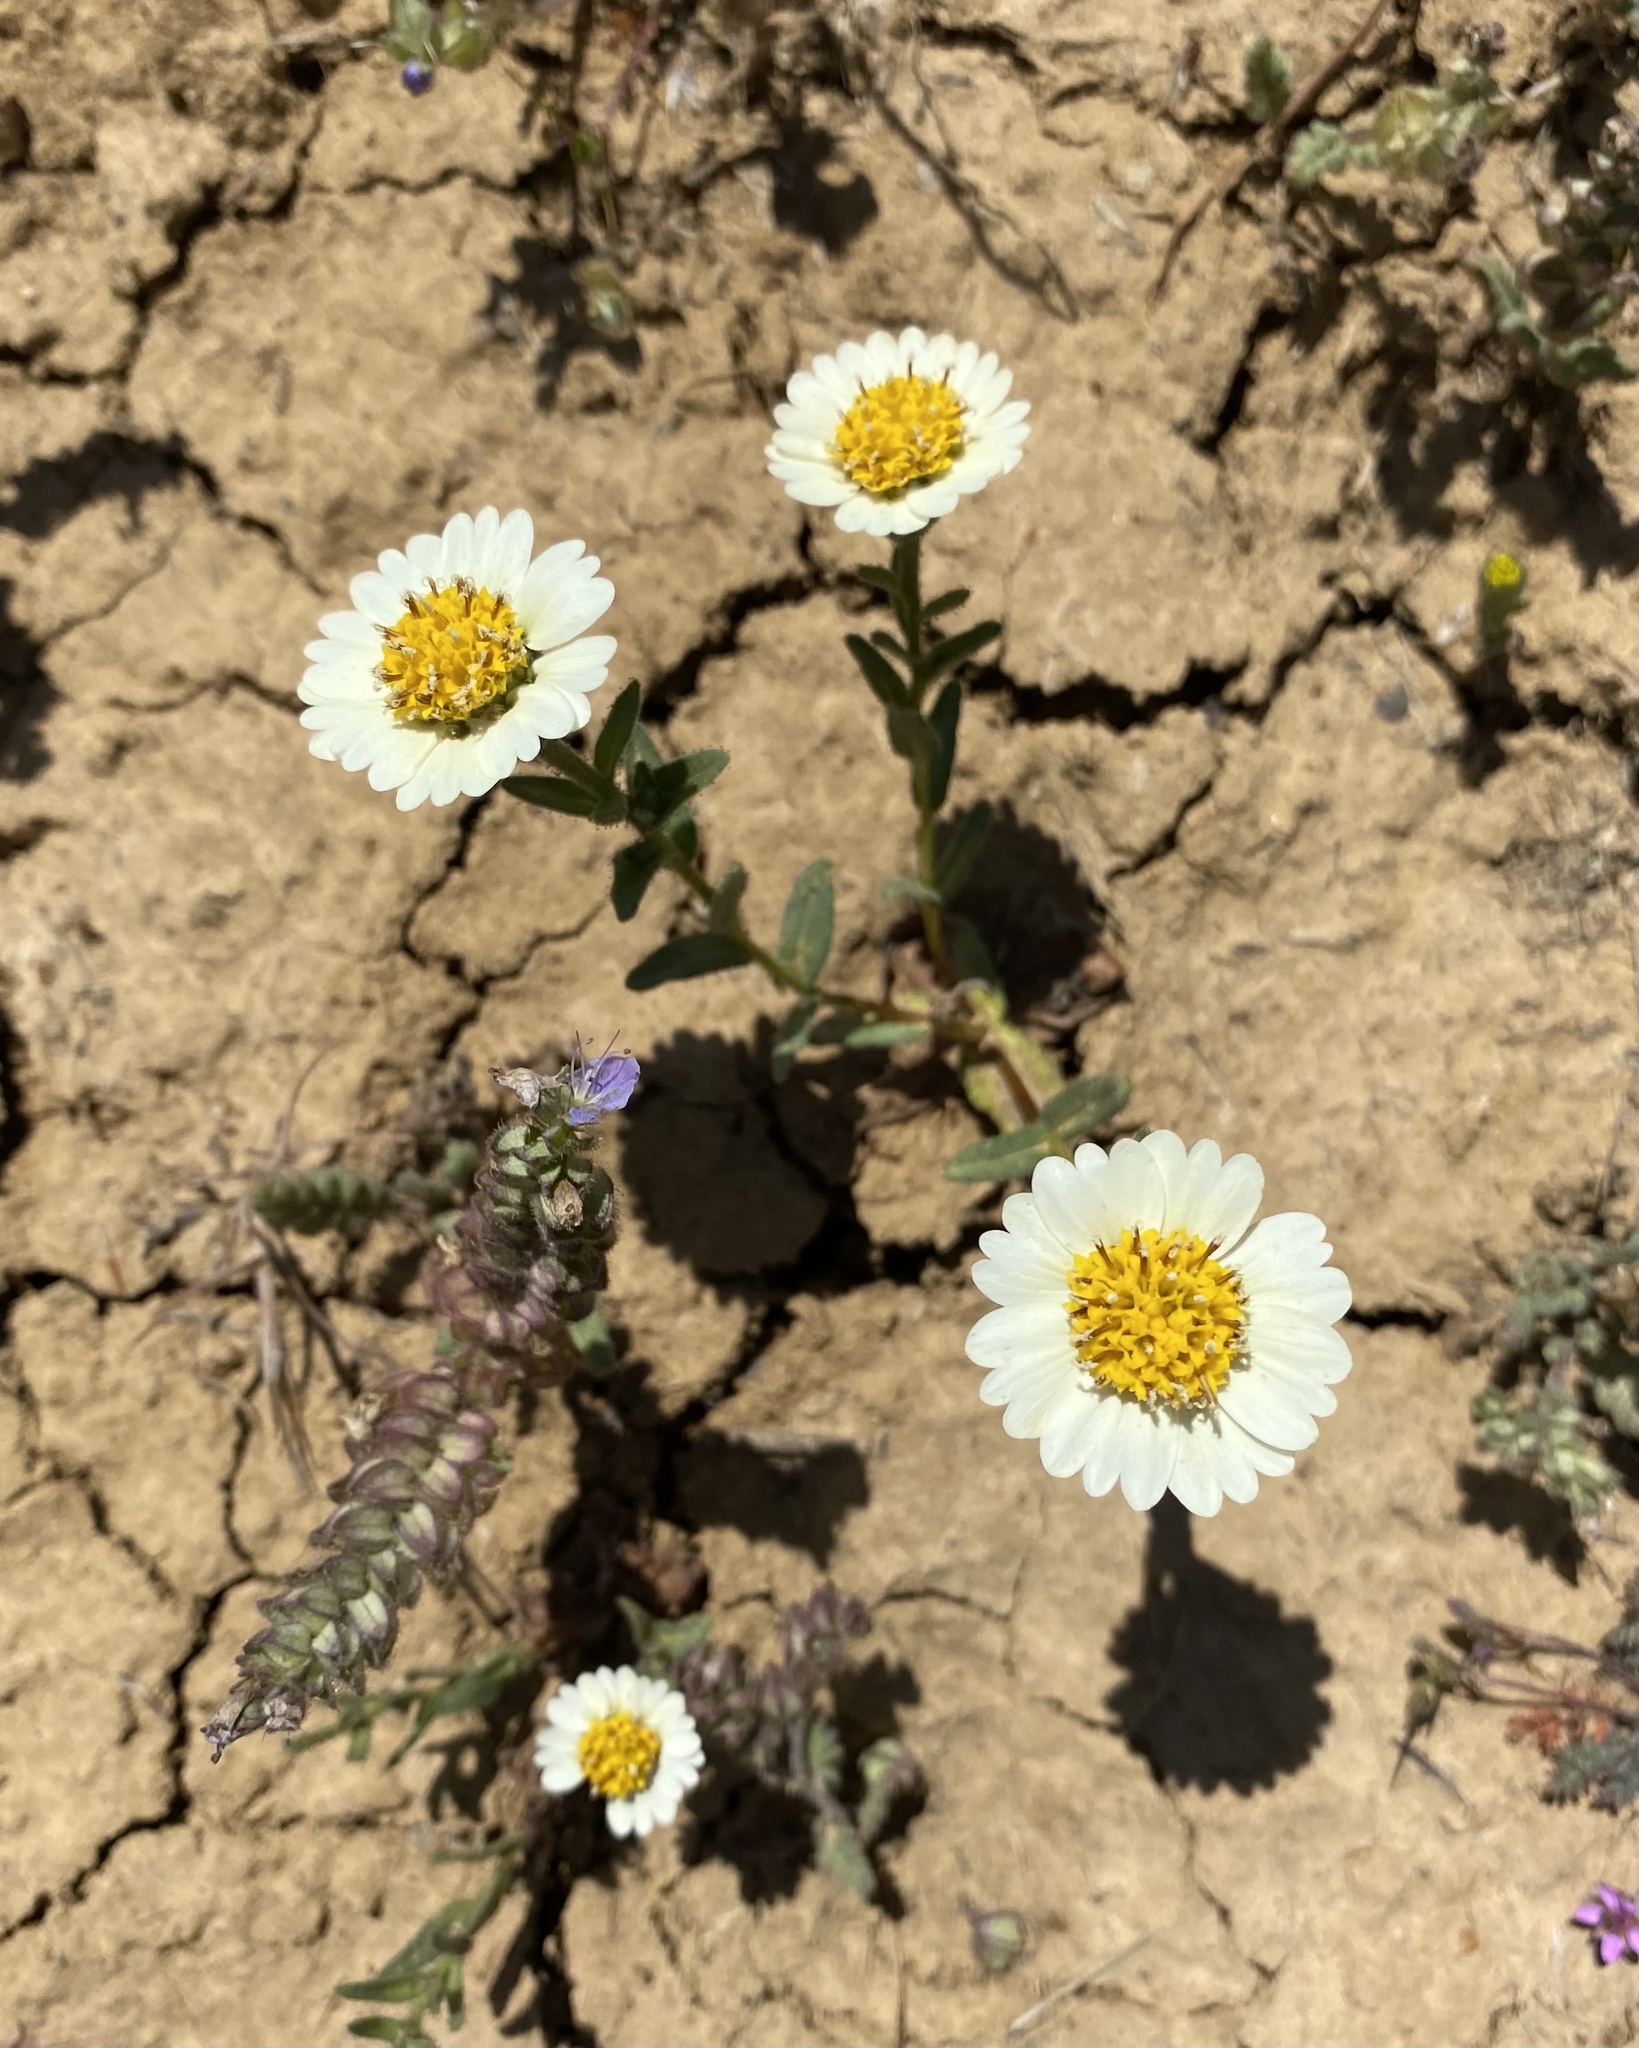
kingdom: Plantae
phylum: Tracheophyta
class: Magnoliopsida
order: Asterales
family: Asteraceae
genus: Layia
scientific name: Layia heterotricha
